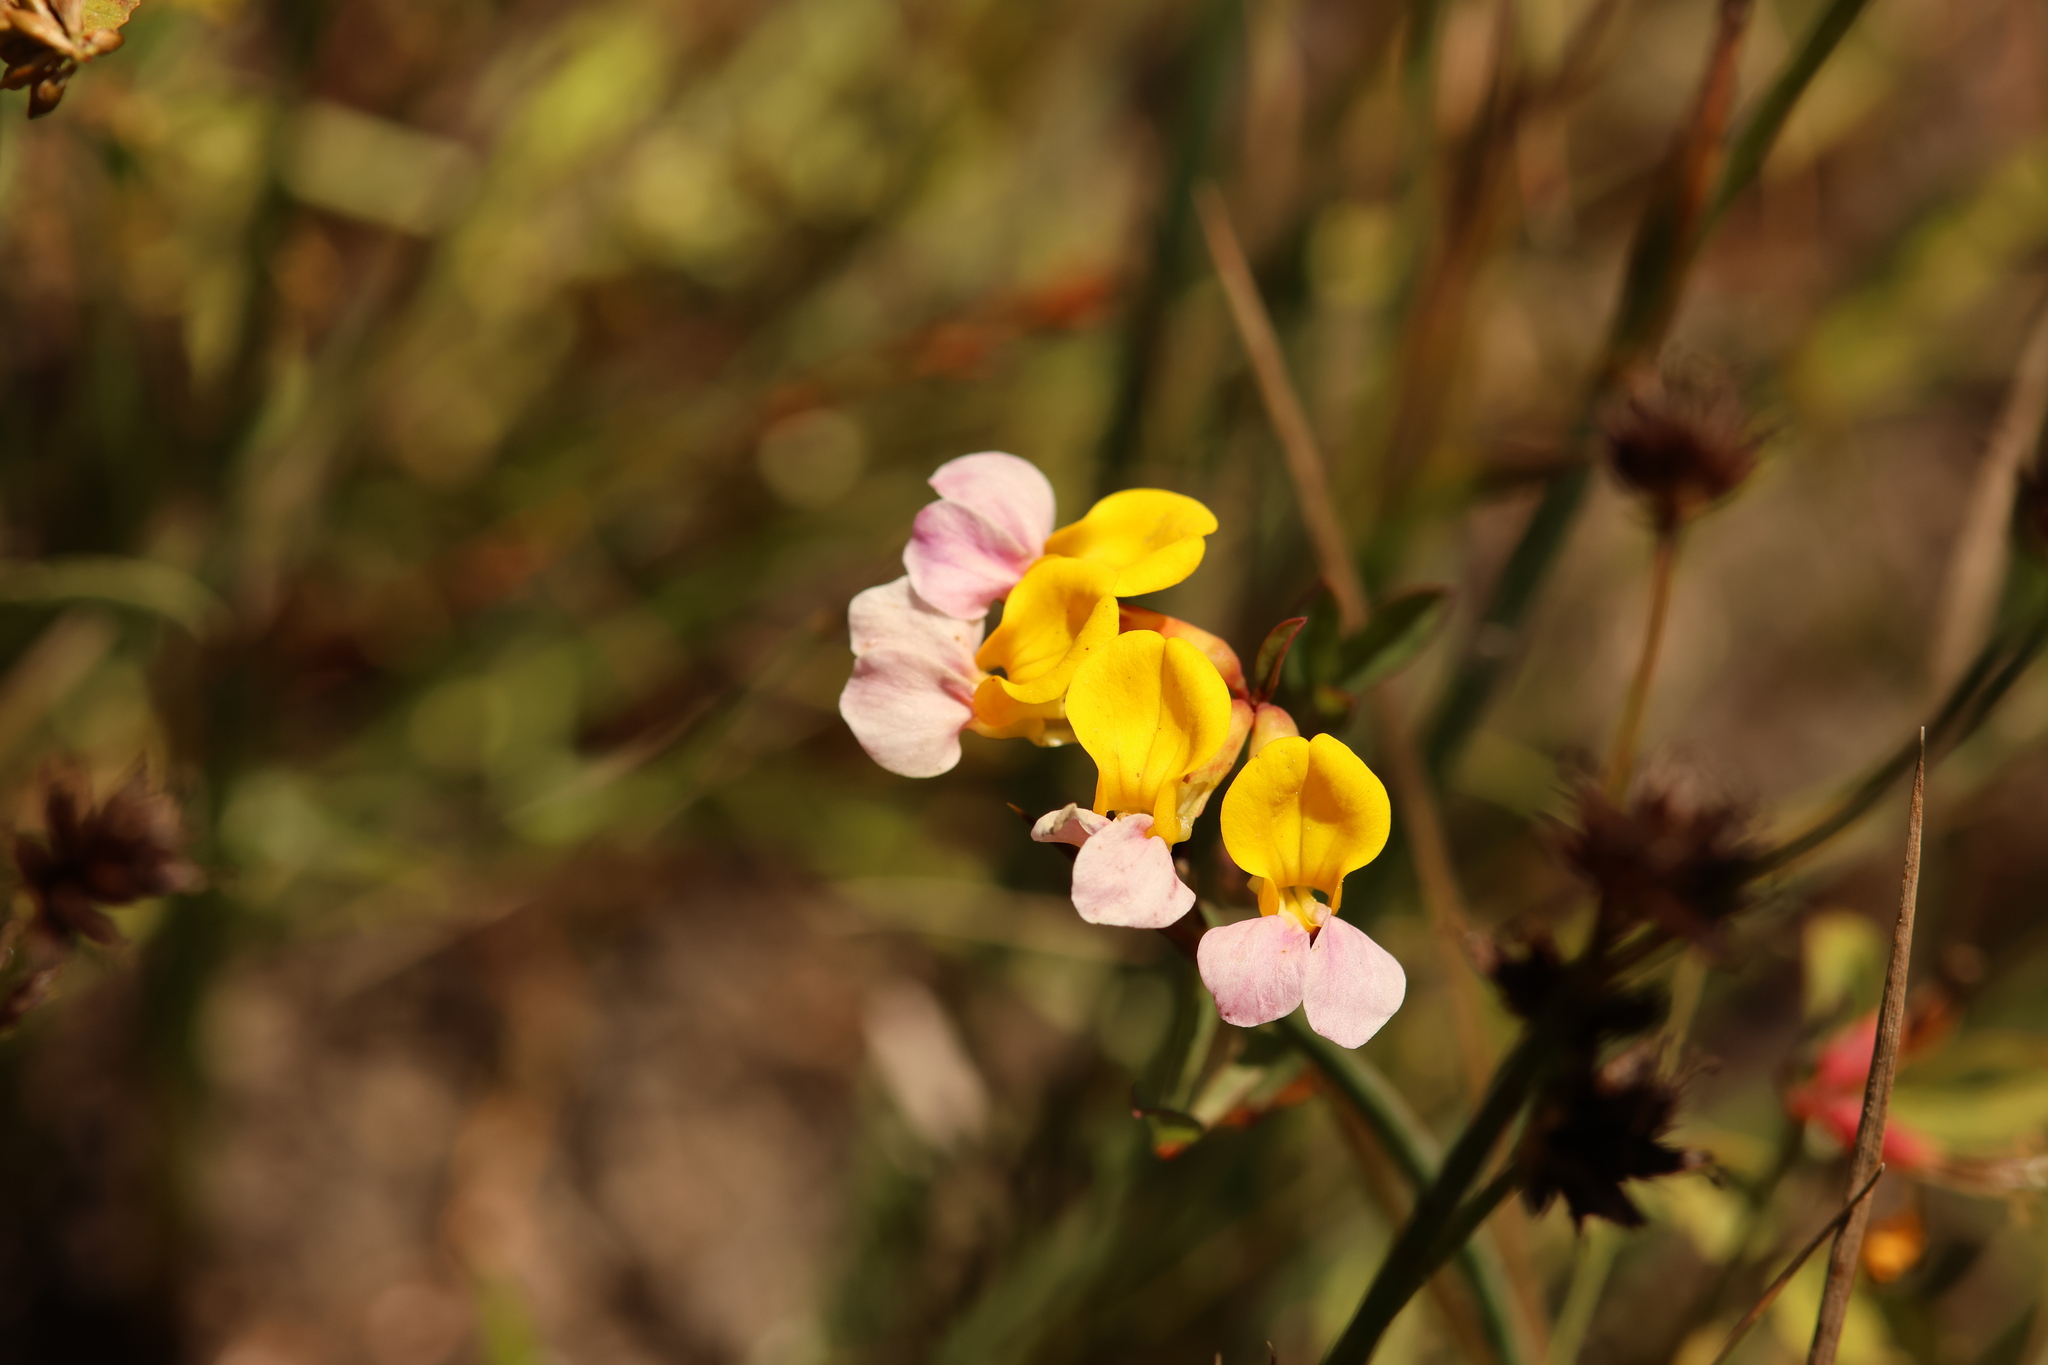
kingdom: Plantae
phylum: Tracheophyta
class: Magnoliopsida
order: Fabales
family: Fabaceae
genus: Hosackia
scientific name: Hosackia gracilis
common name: Seaside bird's-foot lotus
